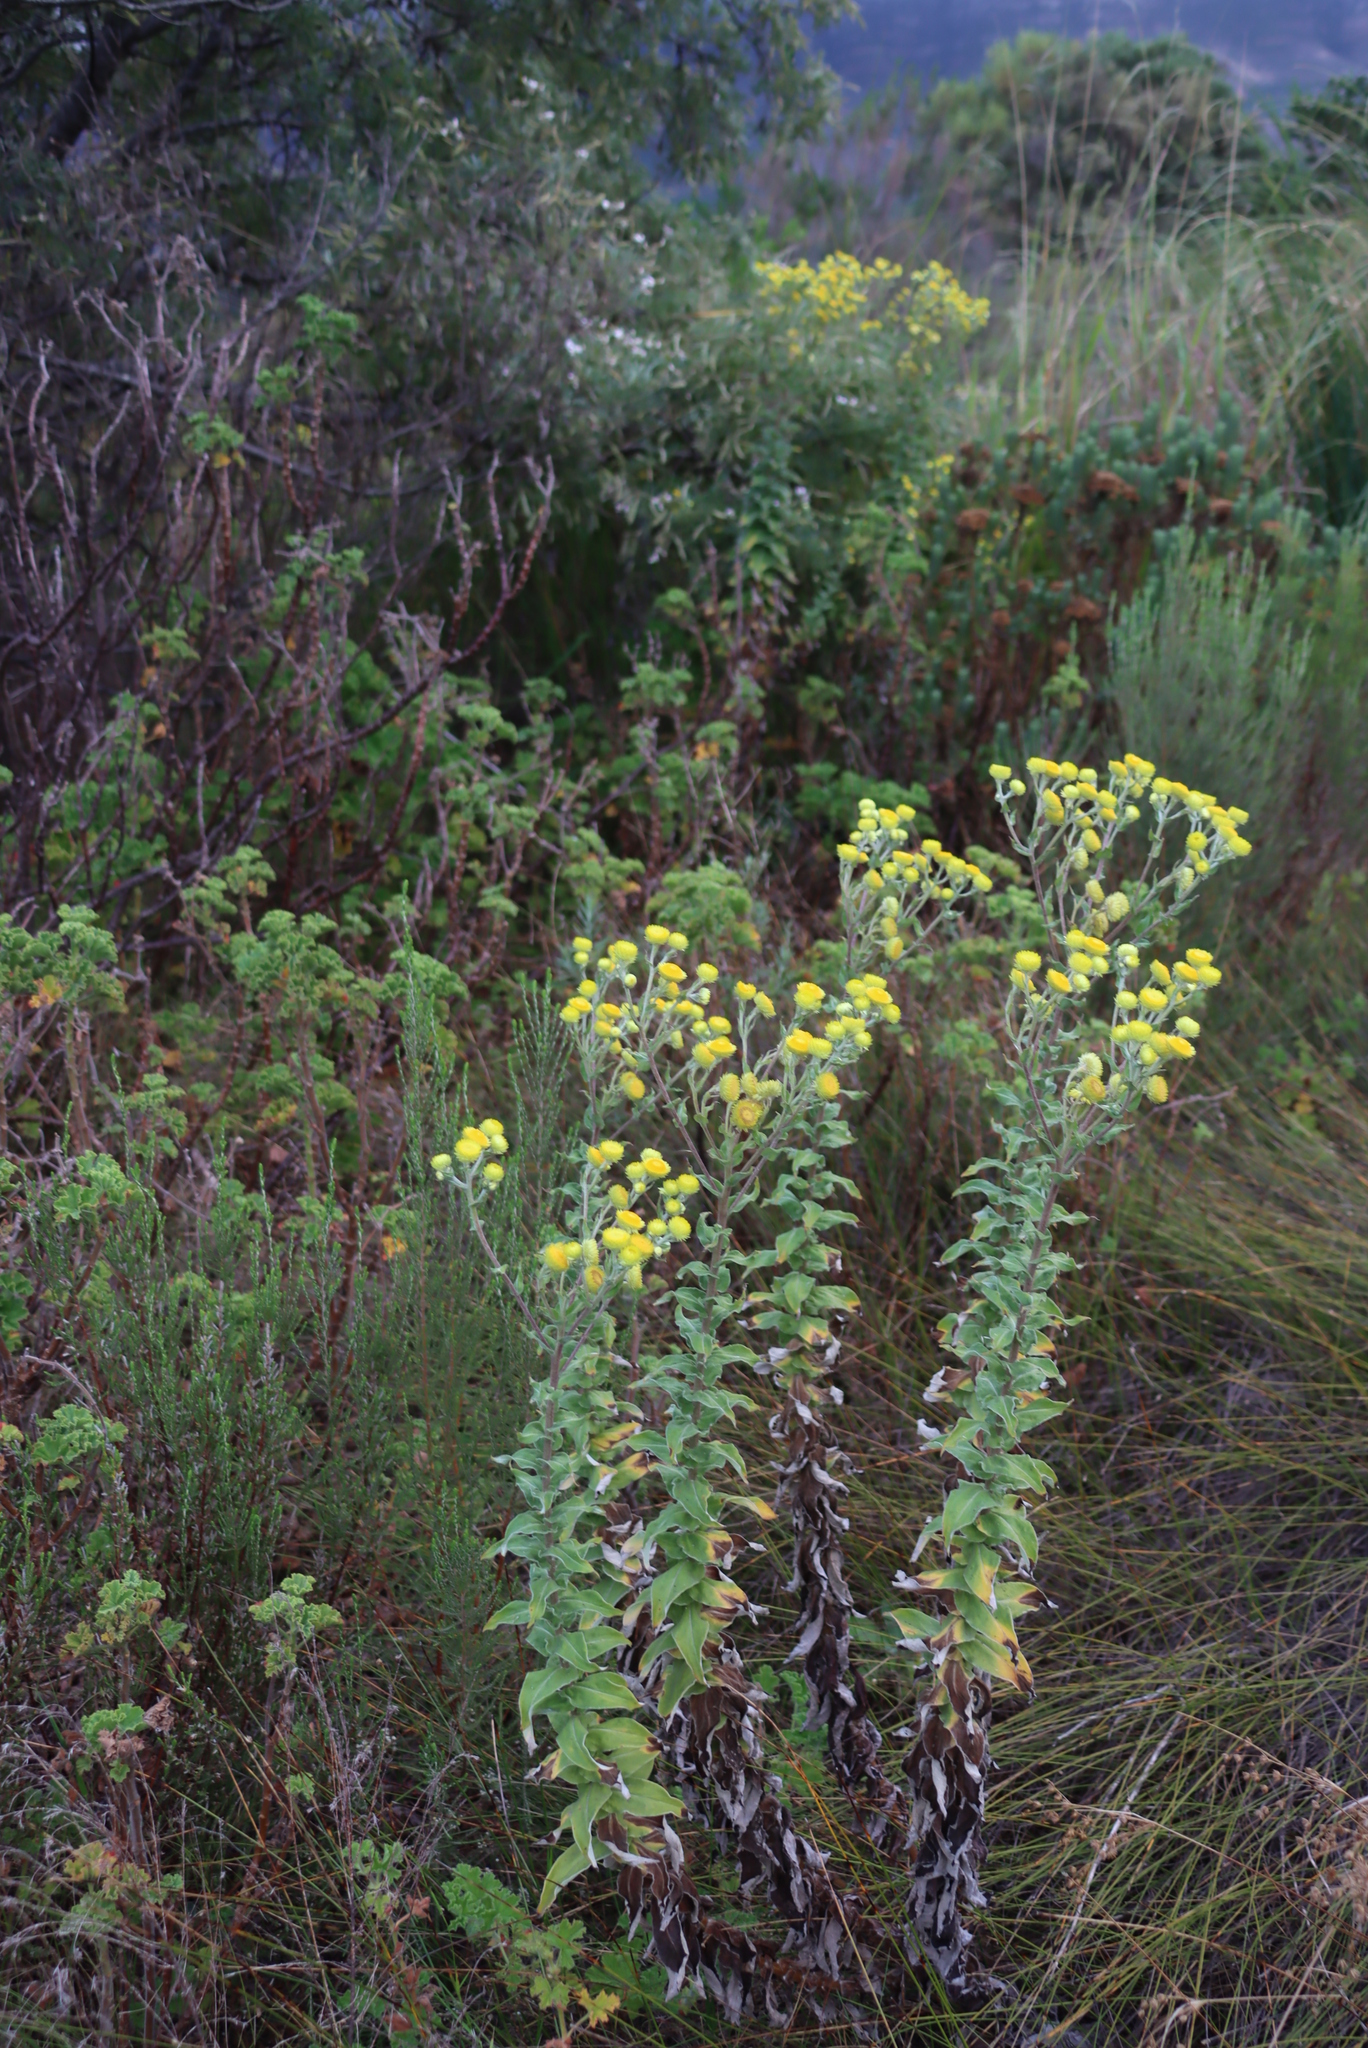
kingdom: Plantae
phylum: Tracheophyta
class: Magnoliopsida
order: Asterales
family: Asteraceae
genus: Helichrysum
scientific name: Helichrysum foetidum
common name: Stinking everlasting
